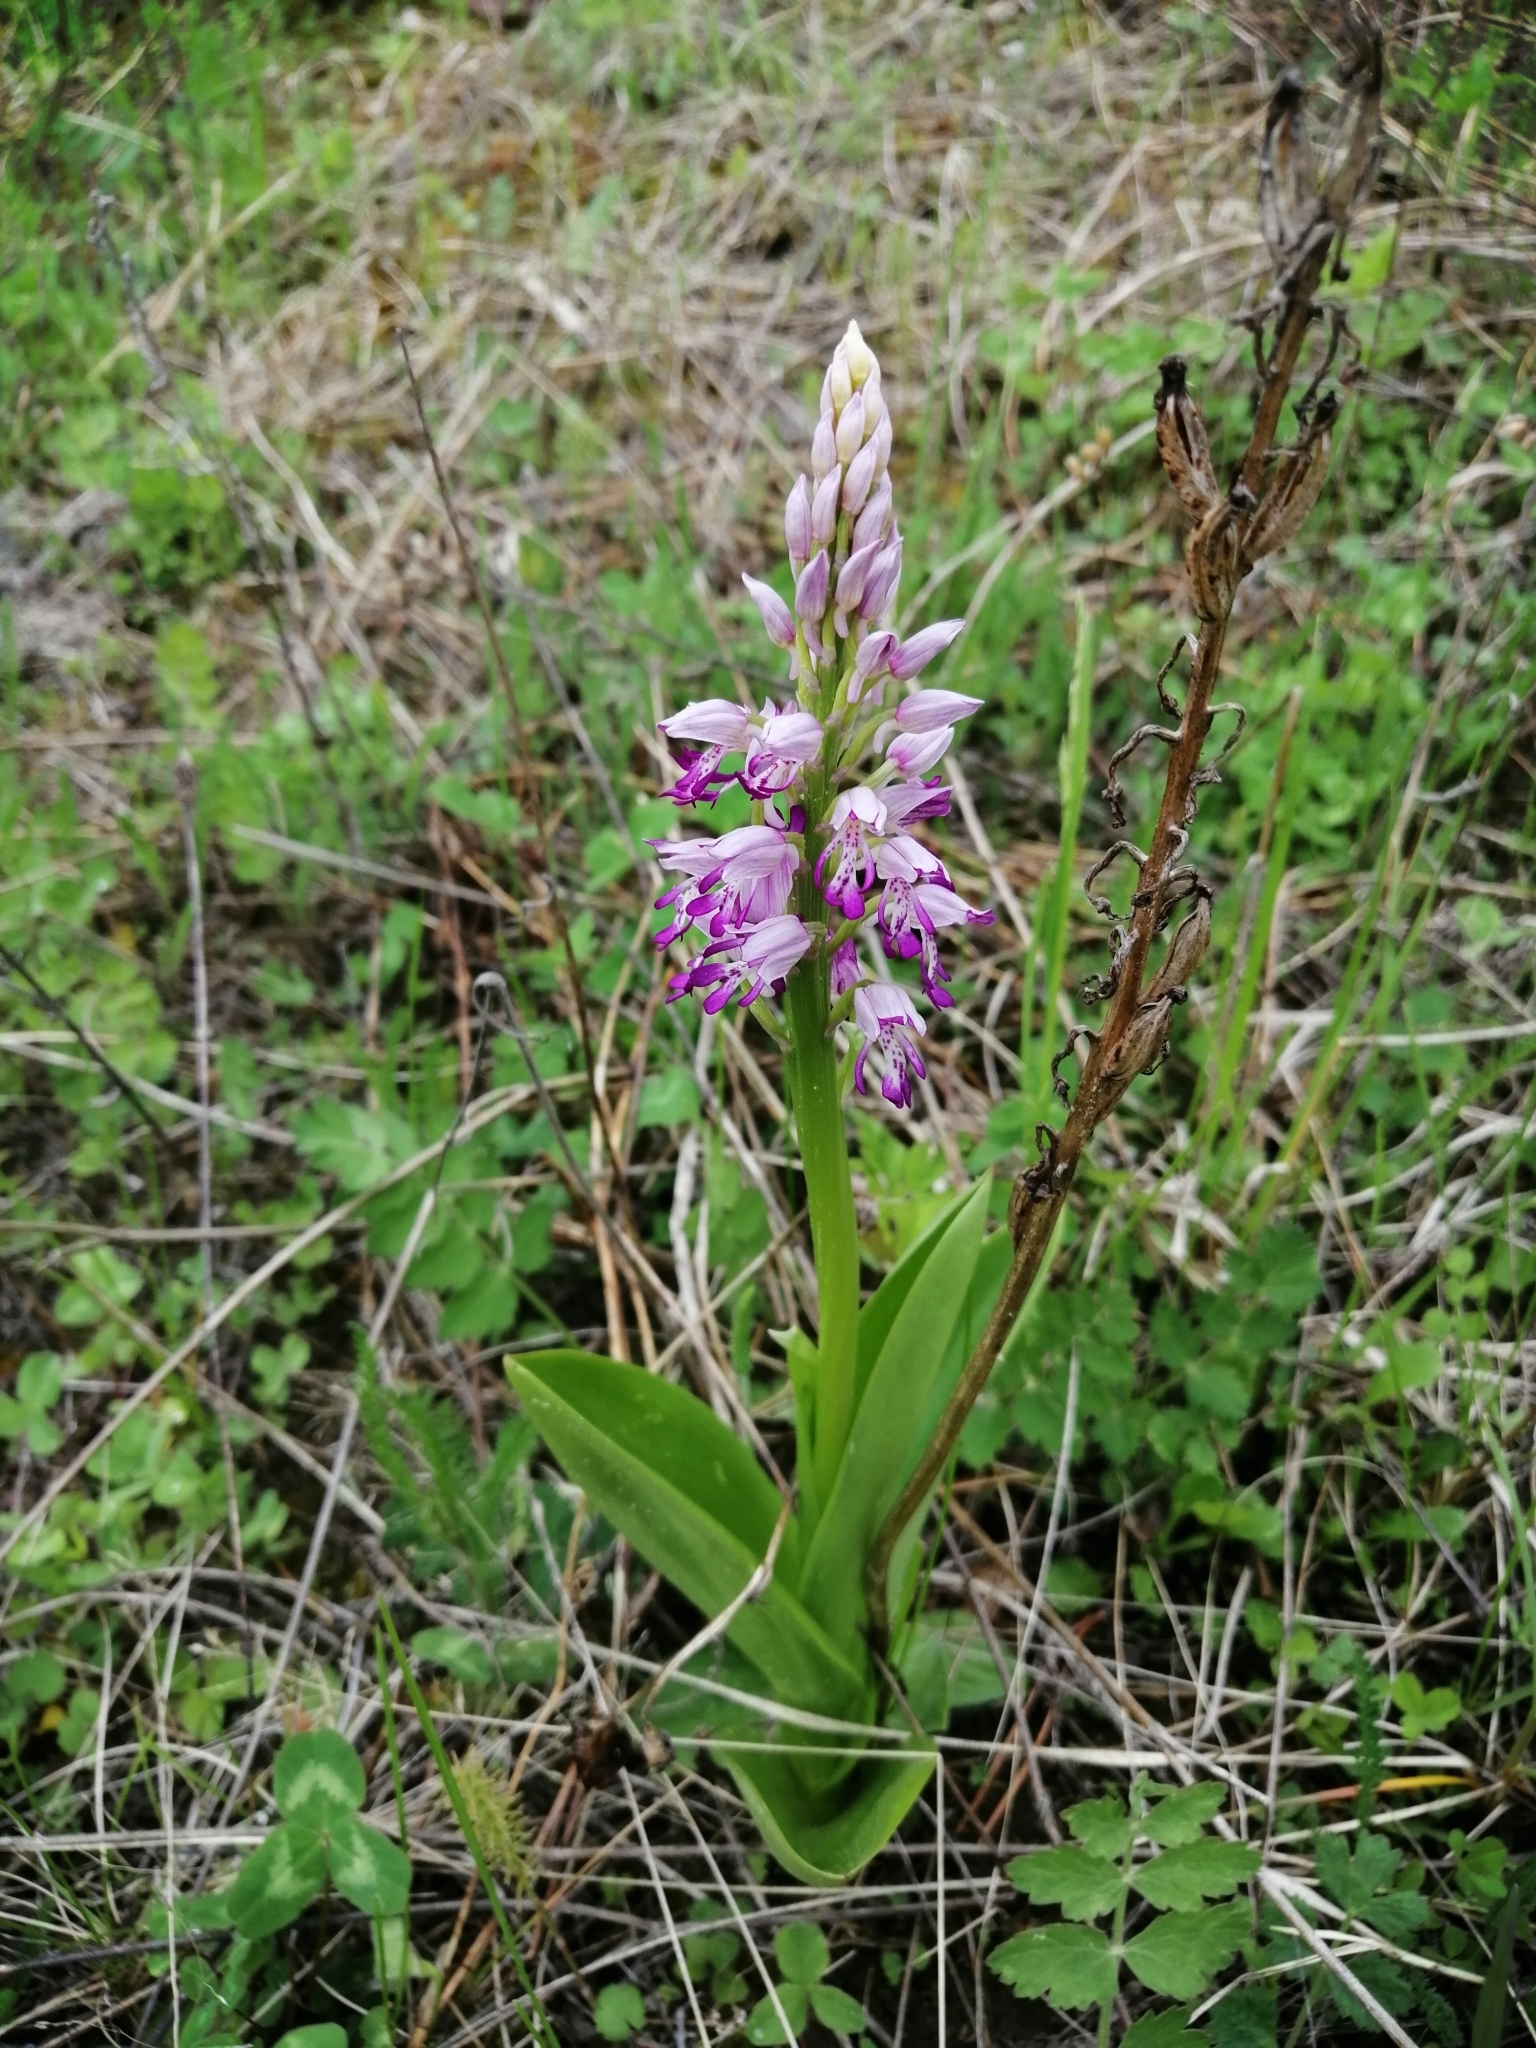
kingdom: Plantae
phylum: Tracheophyta
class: Liliopsida
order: Asparagales
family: Orchidaceae
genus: Orchis
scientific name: Orchis militaris
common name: Military orchid
